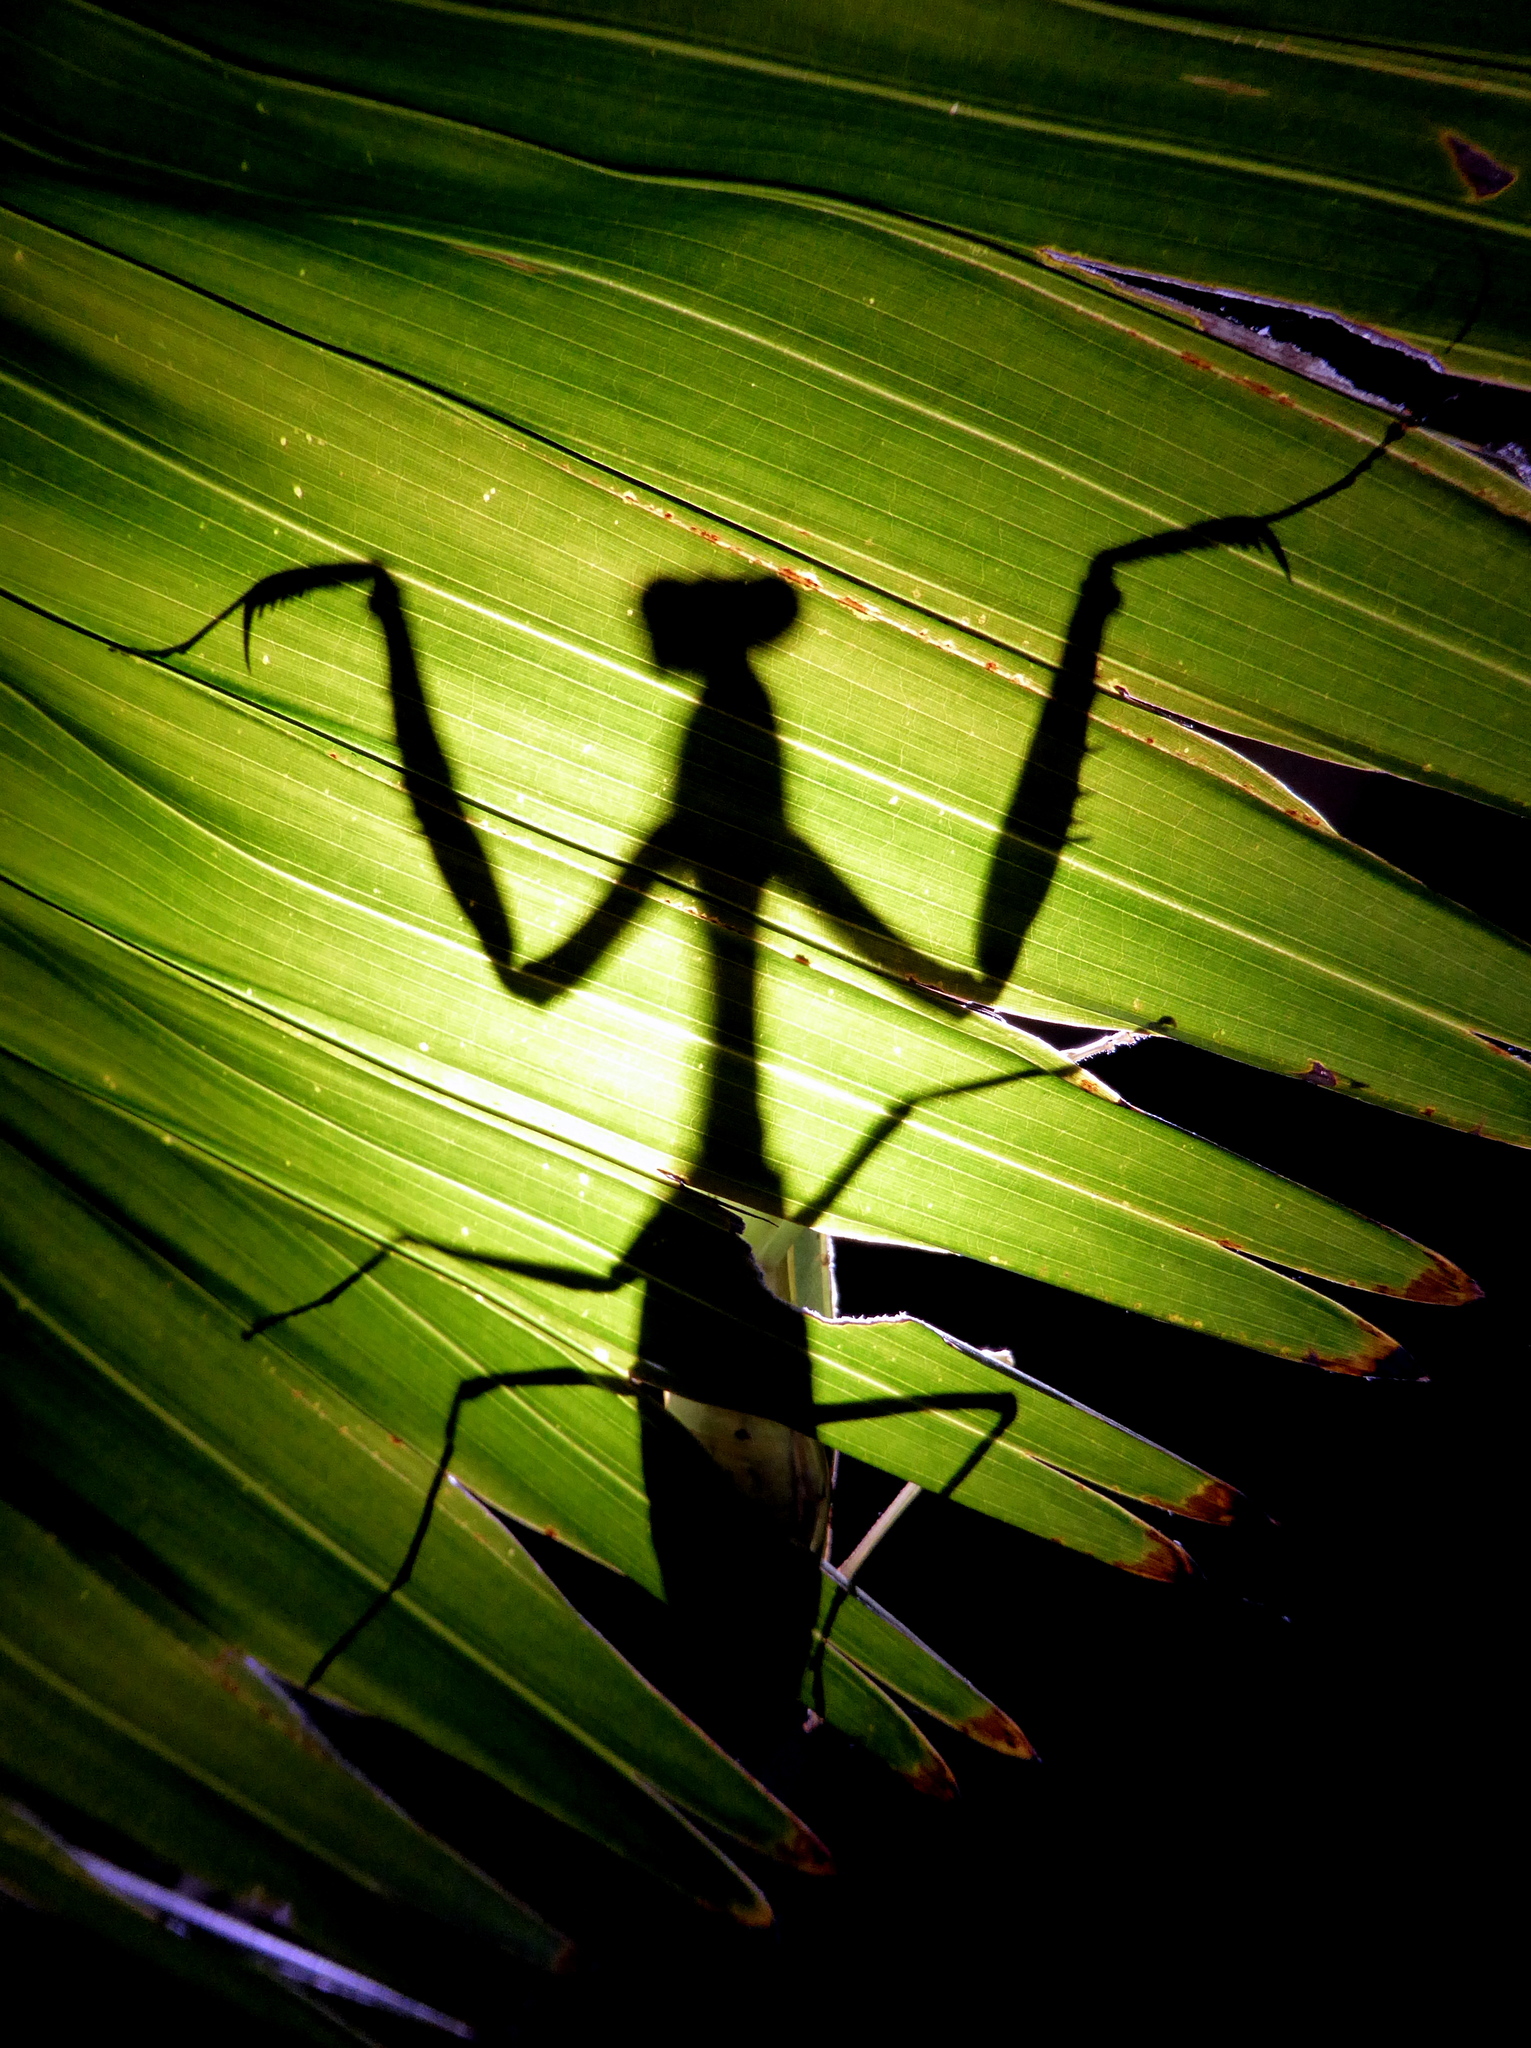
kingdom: Animalia
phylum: Arthropoda
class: Insecta
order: Mantodea
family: Mantidae
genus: Hierodula
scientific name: Hierodula obtusata
